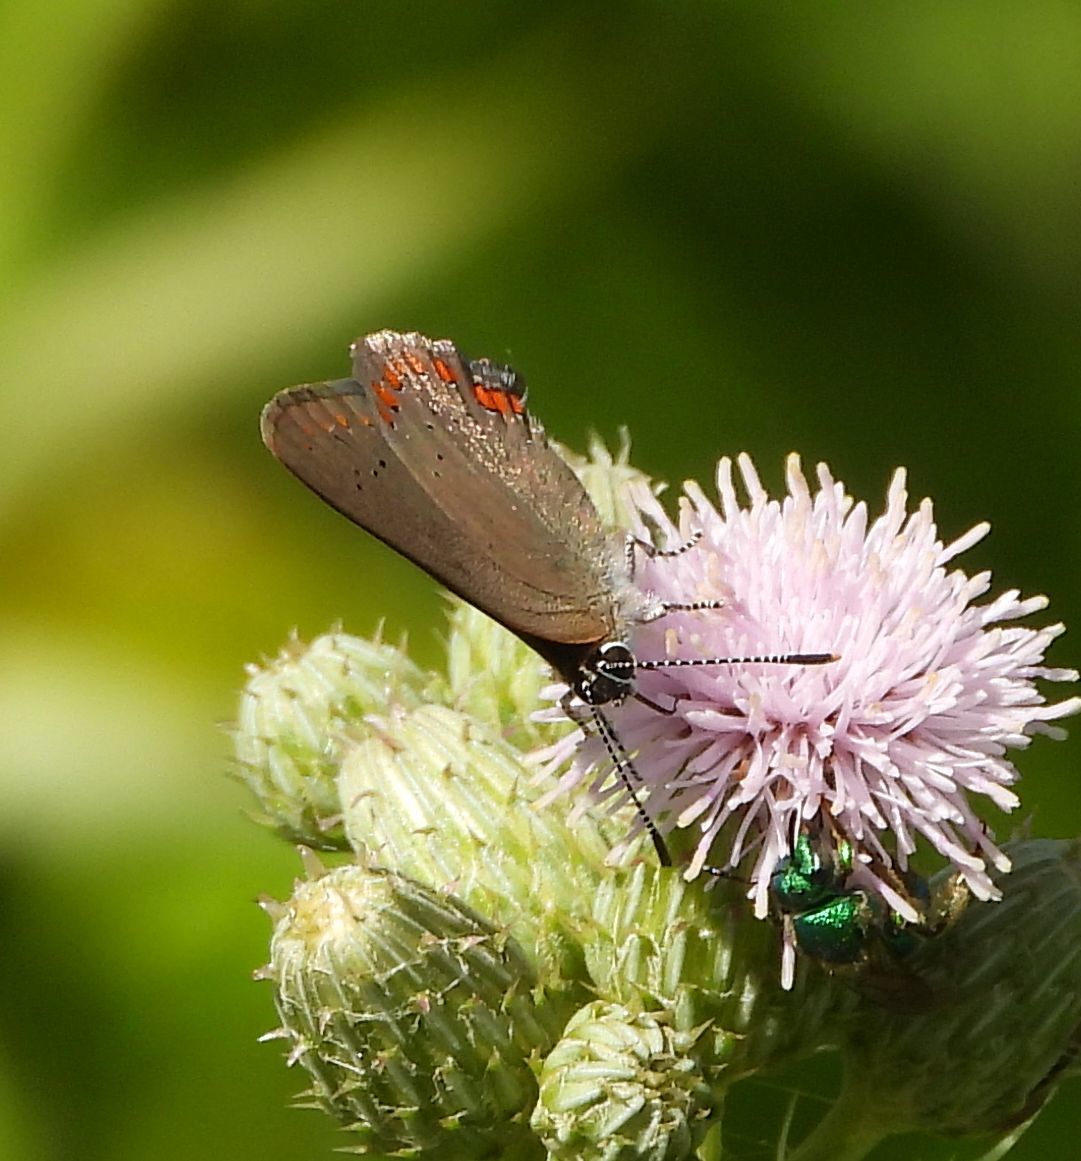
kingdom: Animalia
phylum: Arthropoda
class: Insecta
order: Lepidoptera
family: Lycaenidae
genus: Harkenclenus
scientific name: Harkenclenus titus
